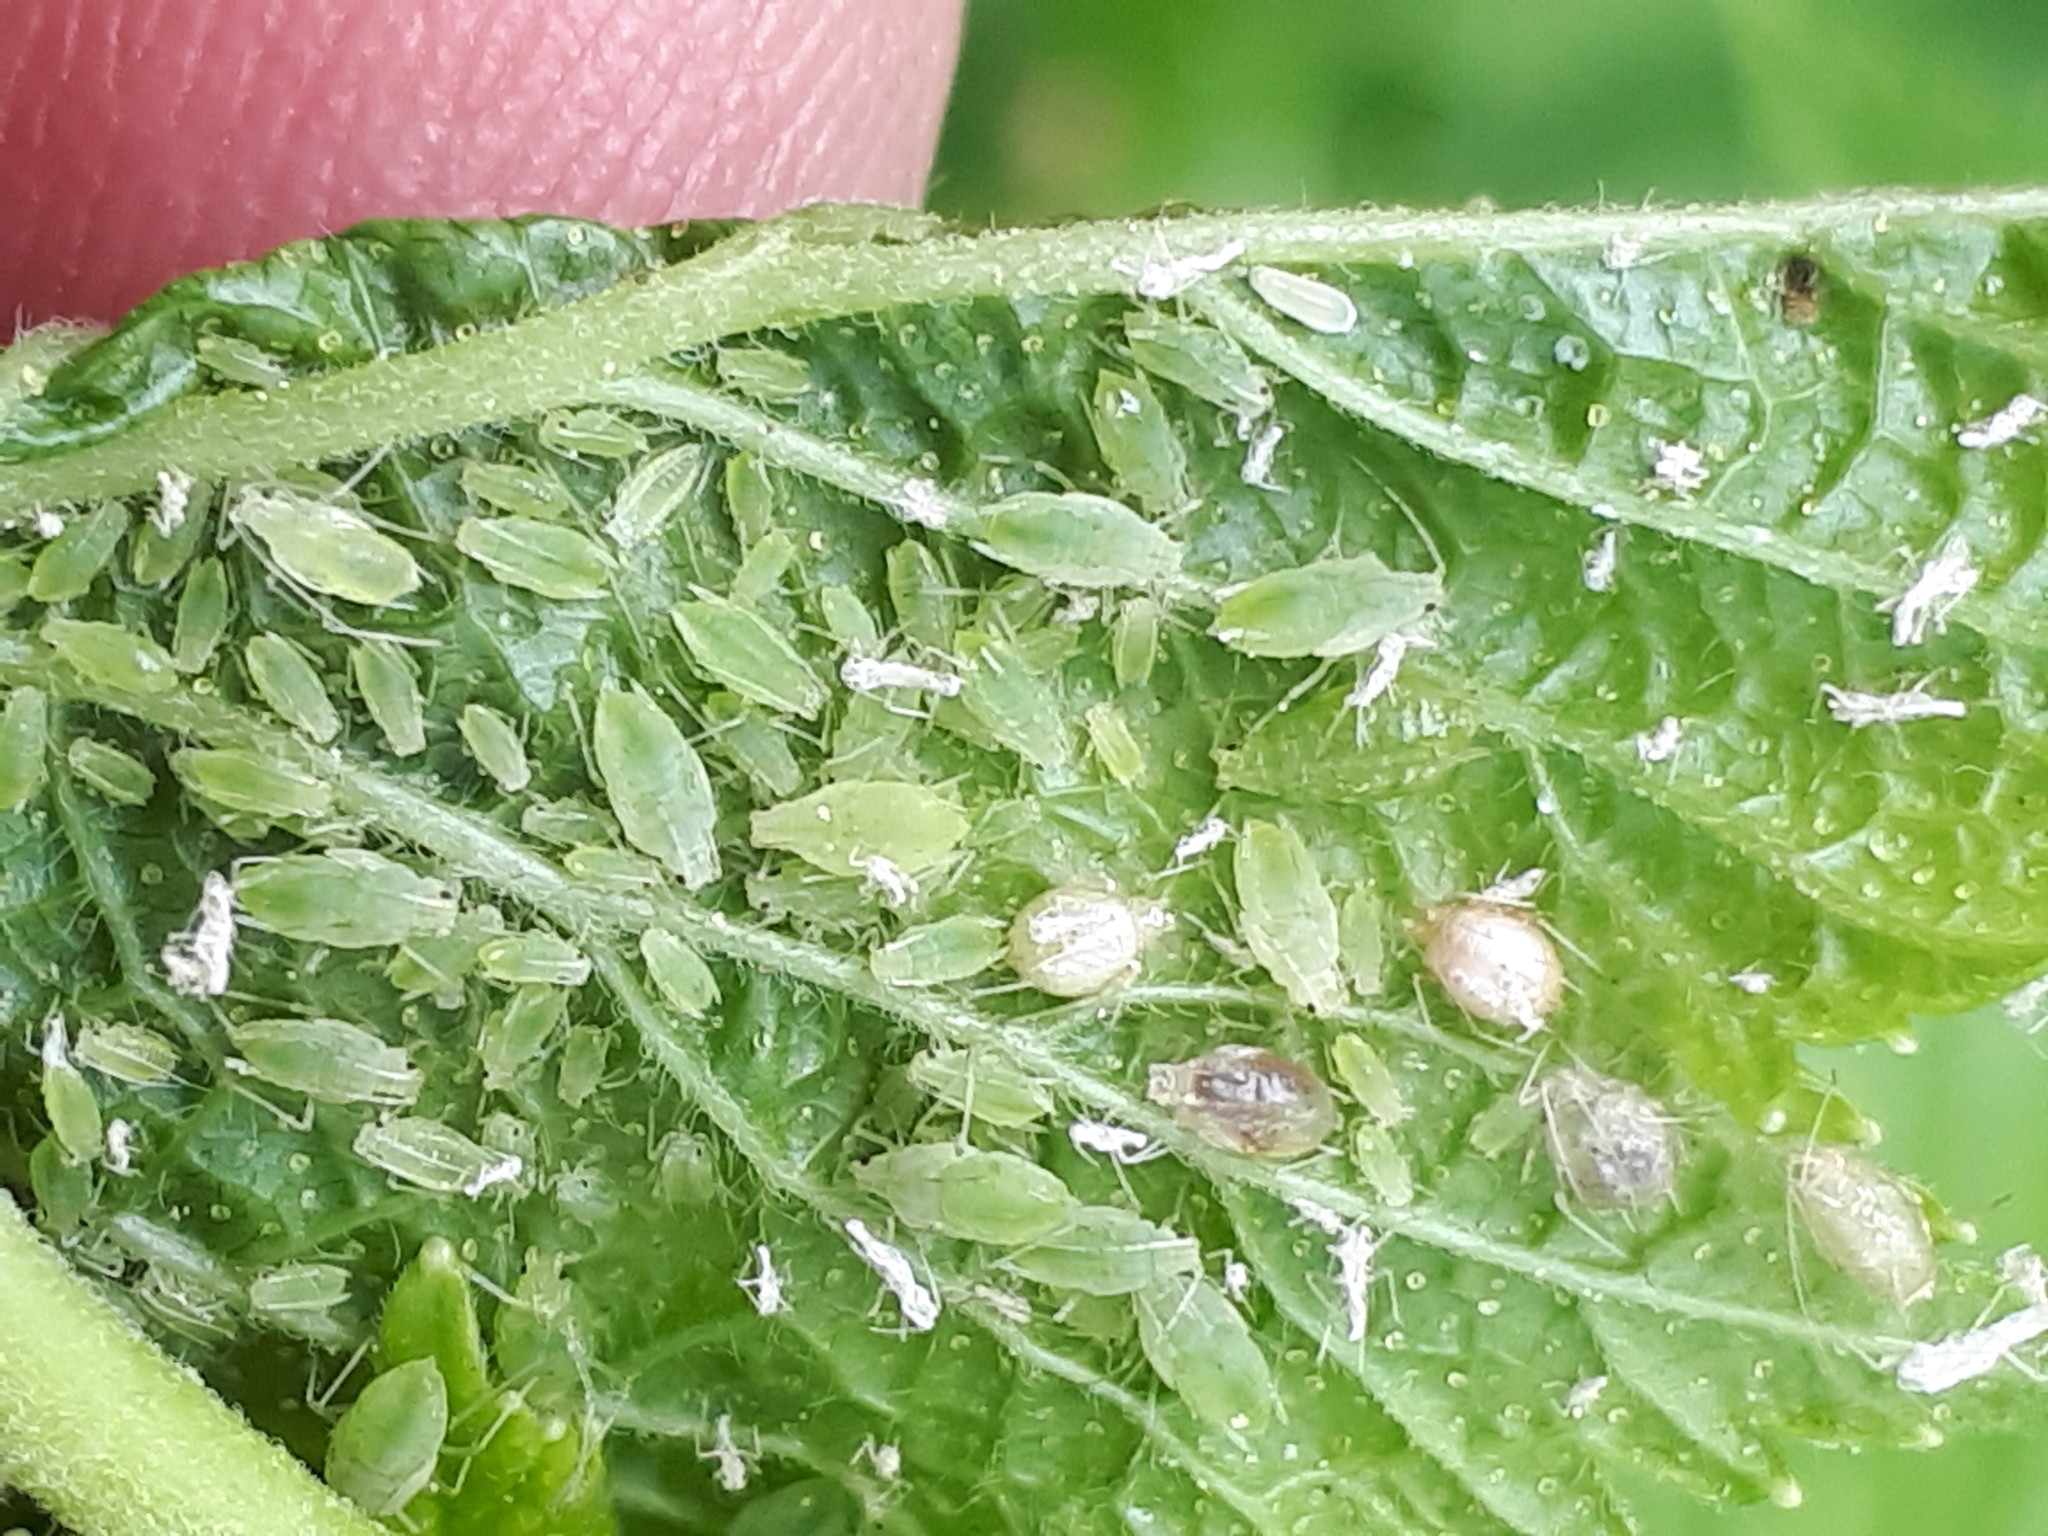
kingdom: Animalia
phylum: Arthropoda
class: Insecta
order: Hemiptera
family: Aphididae
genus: Hyperomyzus
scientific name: Hyperomyzus lactucae
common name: Sow thistle aphid
